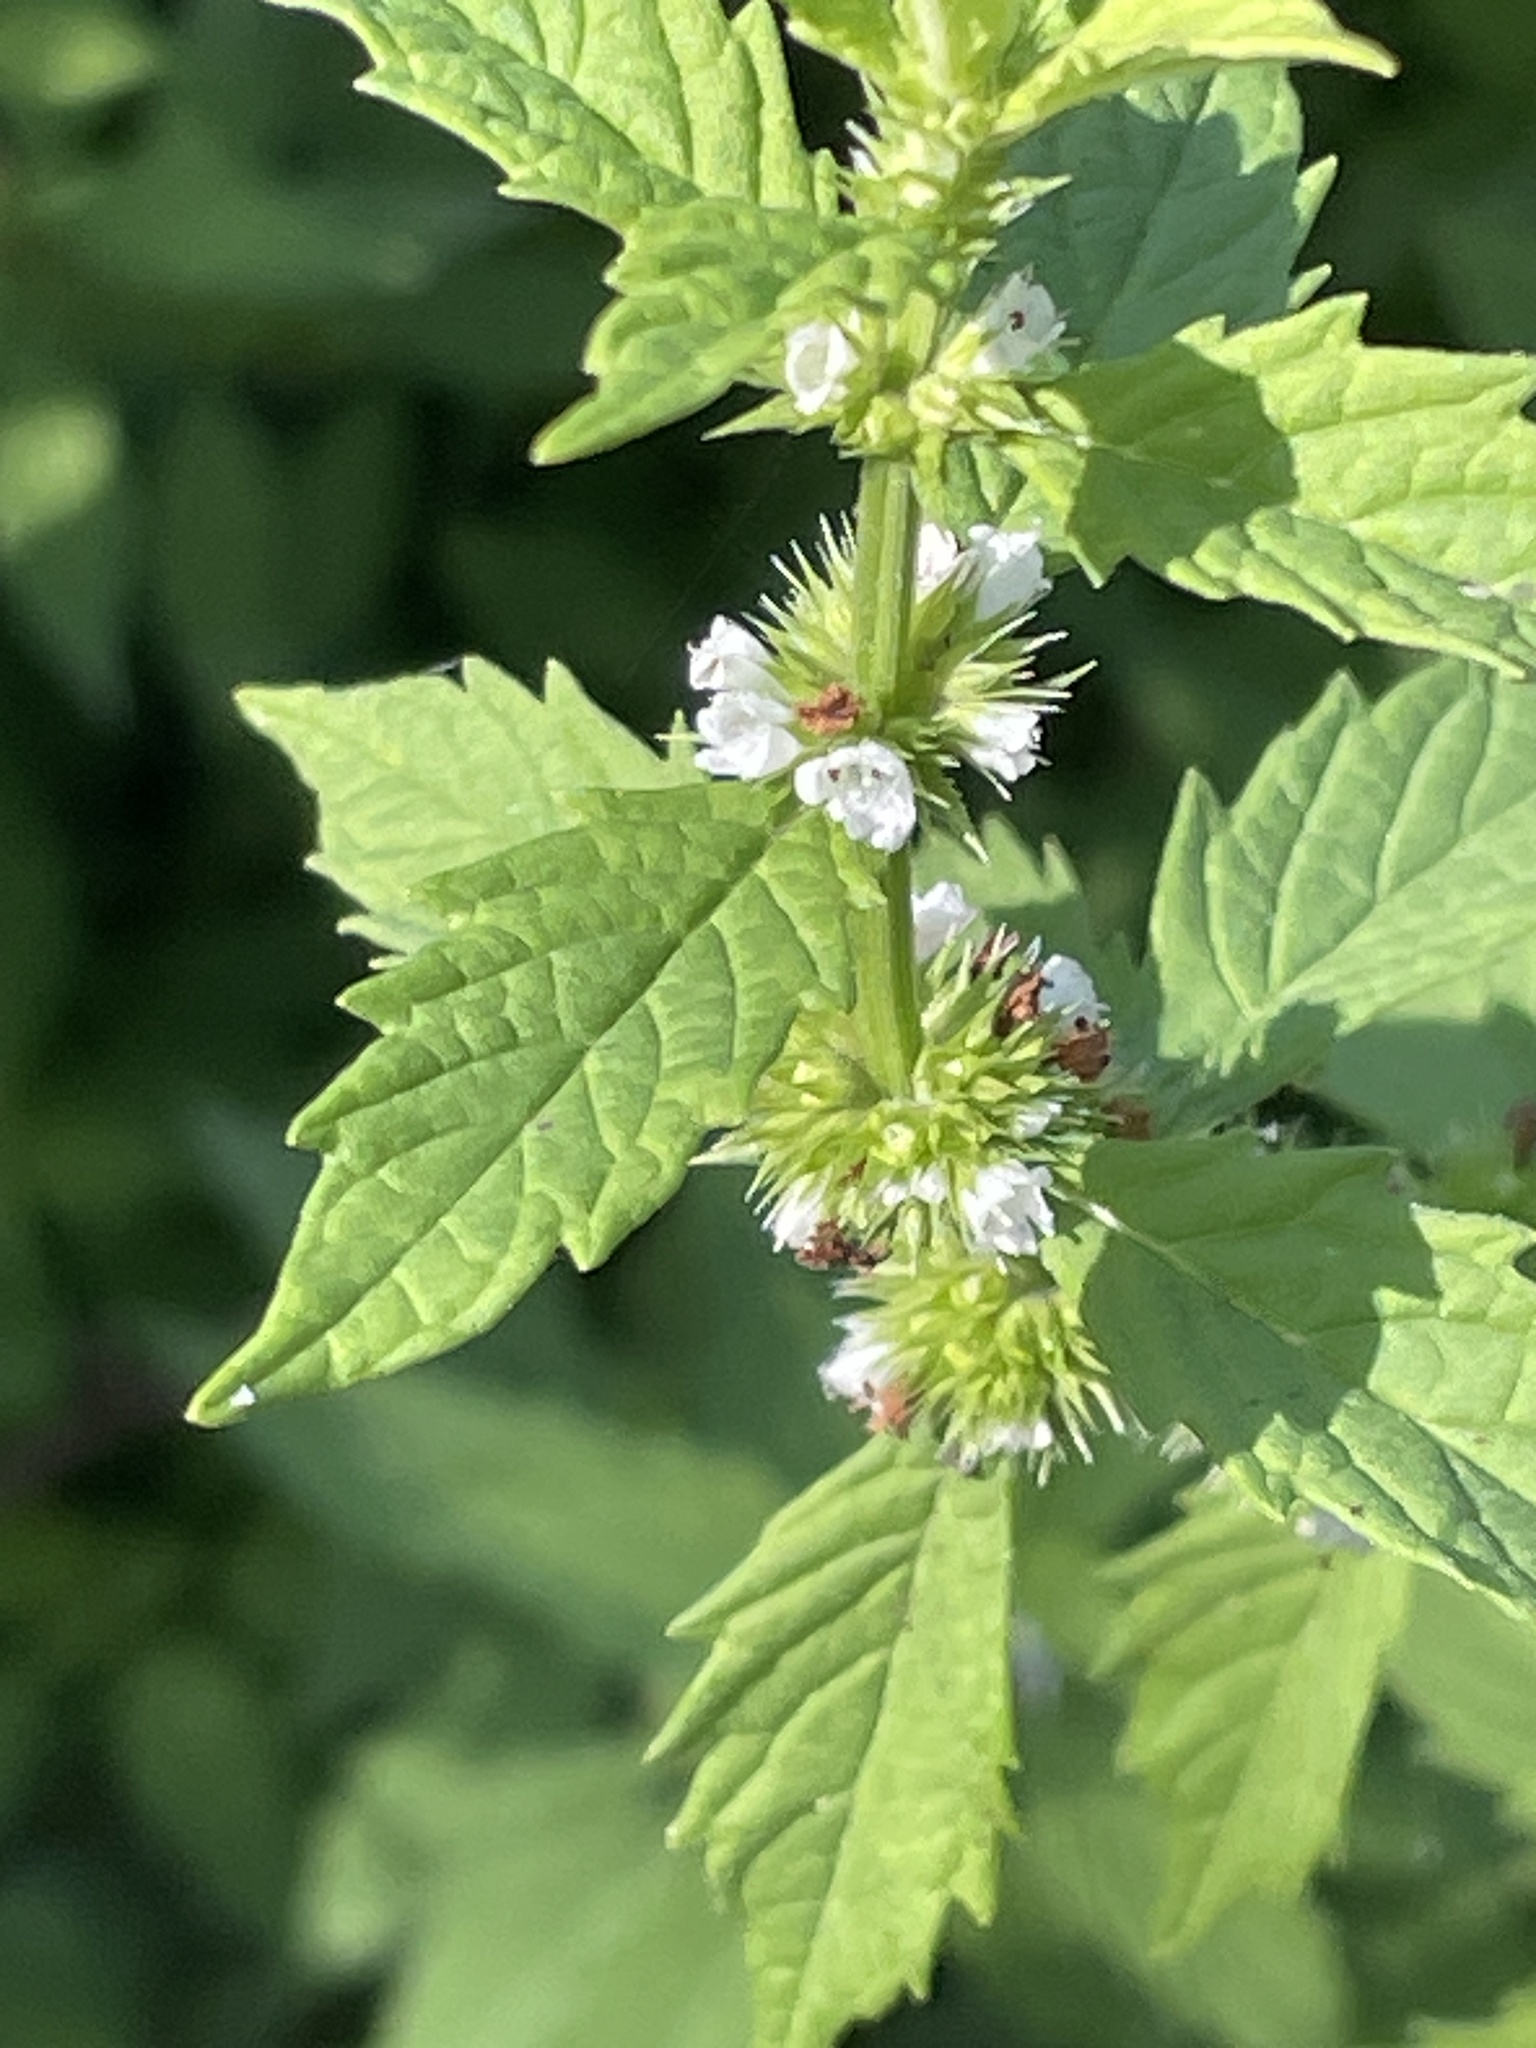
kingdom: Plantae
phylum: Tracheophyta
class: Magnoliopsida
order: Lamiales
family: Lamiaceae
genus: Lycopus
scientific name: Lycopus europaeus
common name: European bugleweed
